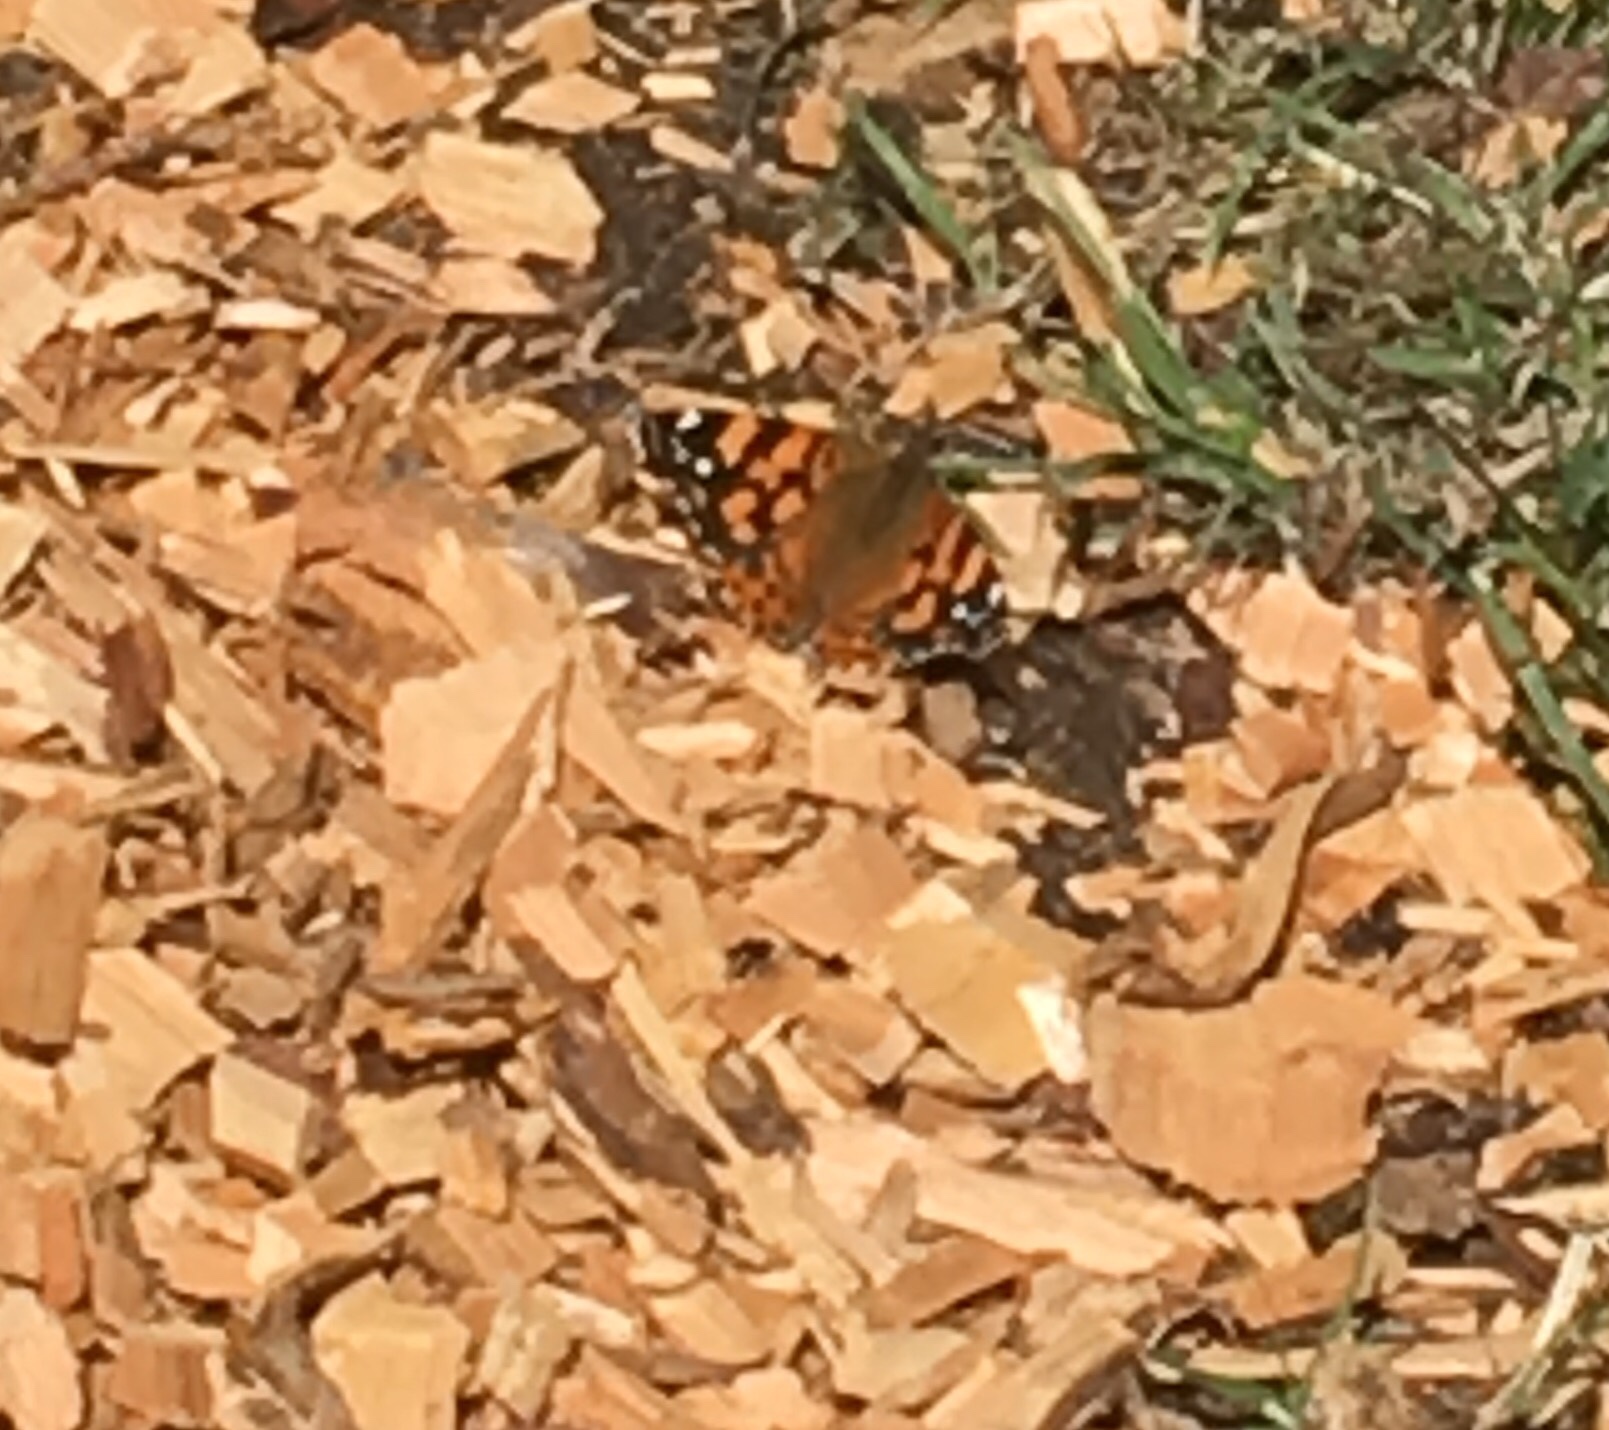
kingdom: Animalia
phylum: Arthropoda
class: Insecta
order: Lepidoptera
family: Nymphalidae
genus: Vanessa
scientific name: Vanessa annabella
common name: West coast lady
